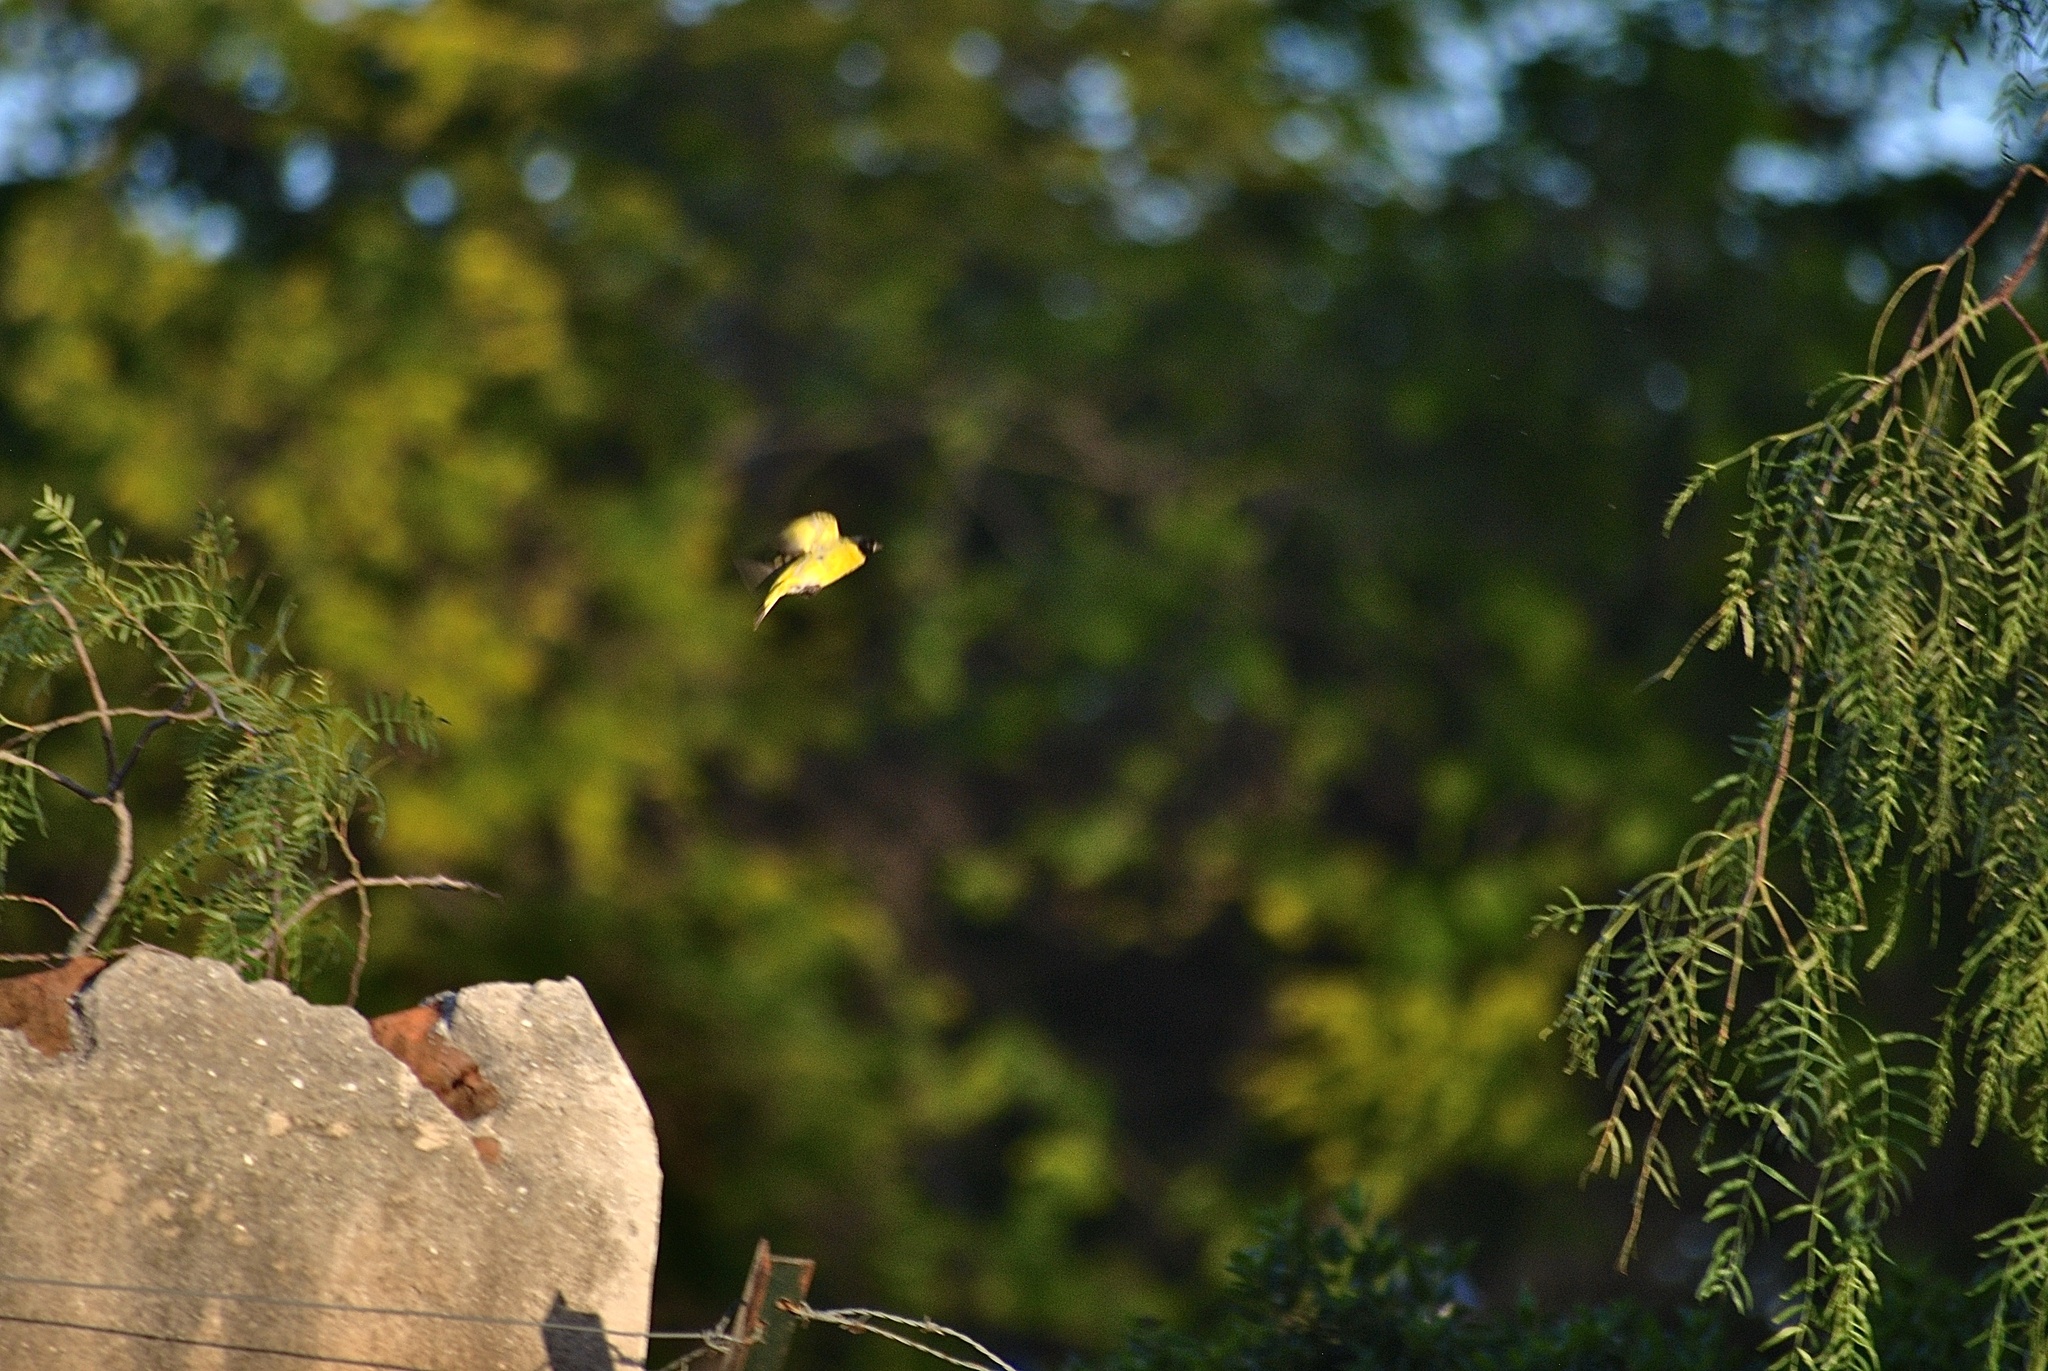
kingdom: Animalia
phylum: Chordata
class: Aves
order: Passeriformes
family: Fringillidae
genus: Spinus
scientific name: Spinus magellanicus
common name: Hooded siskin
